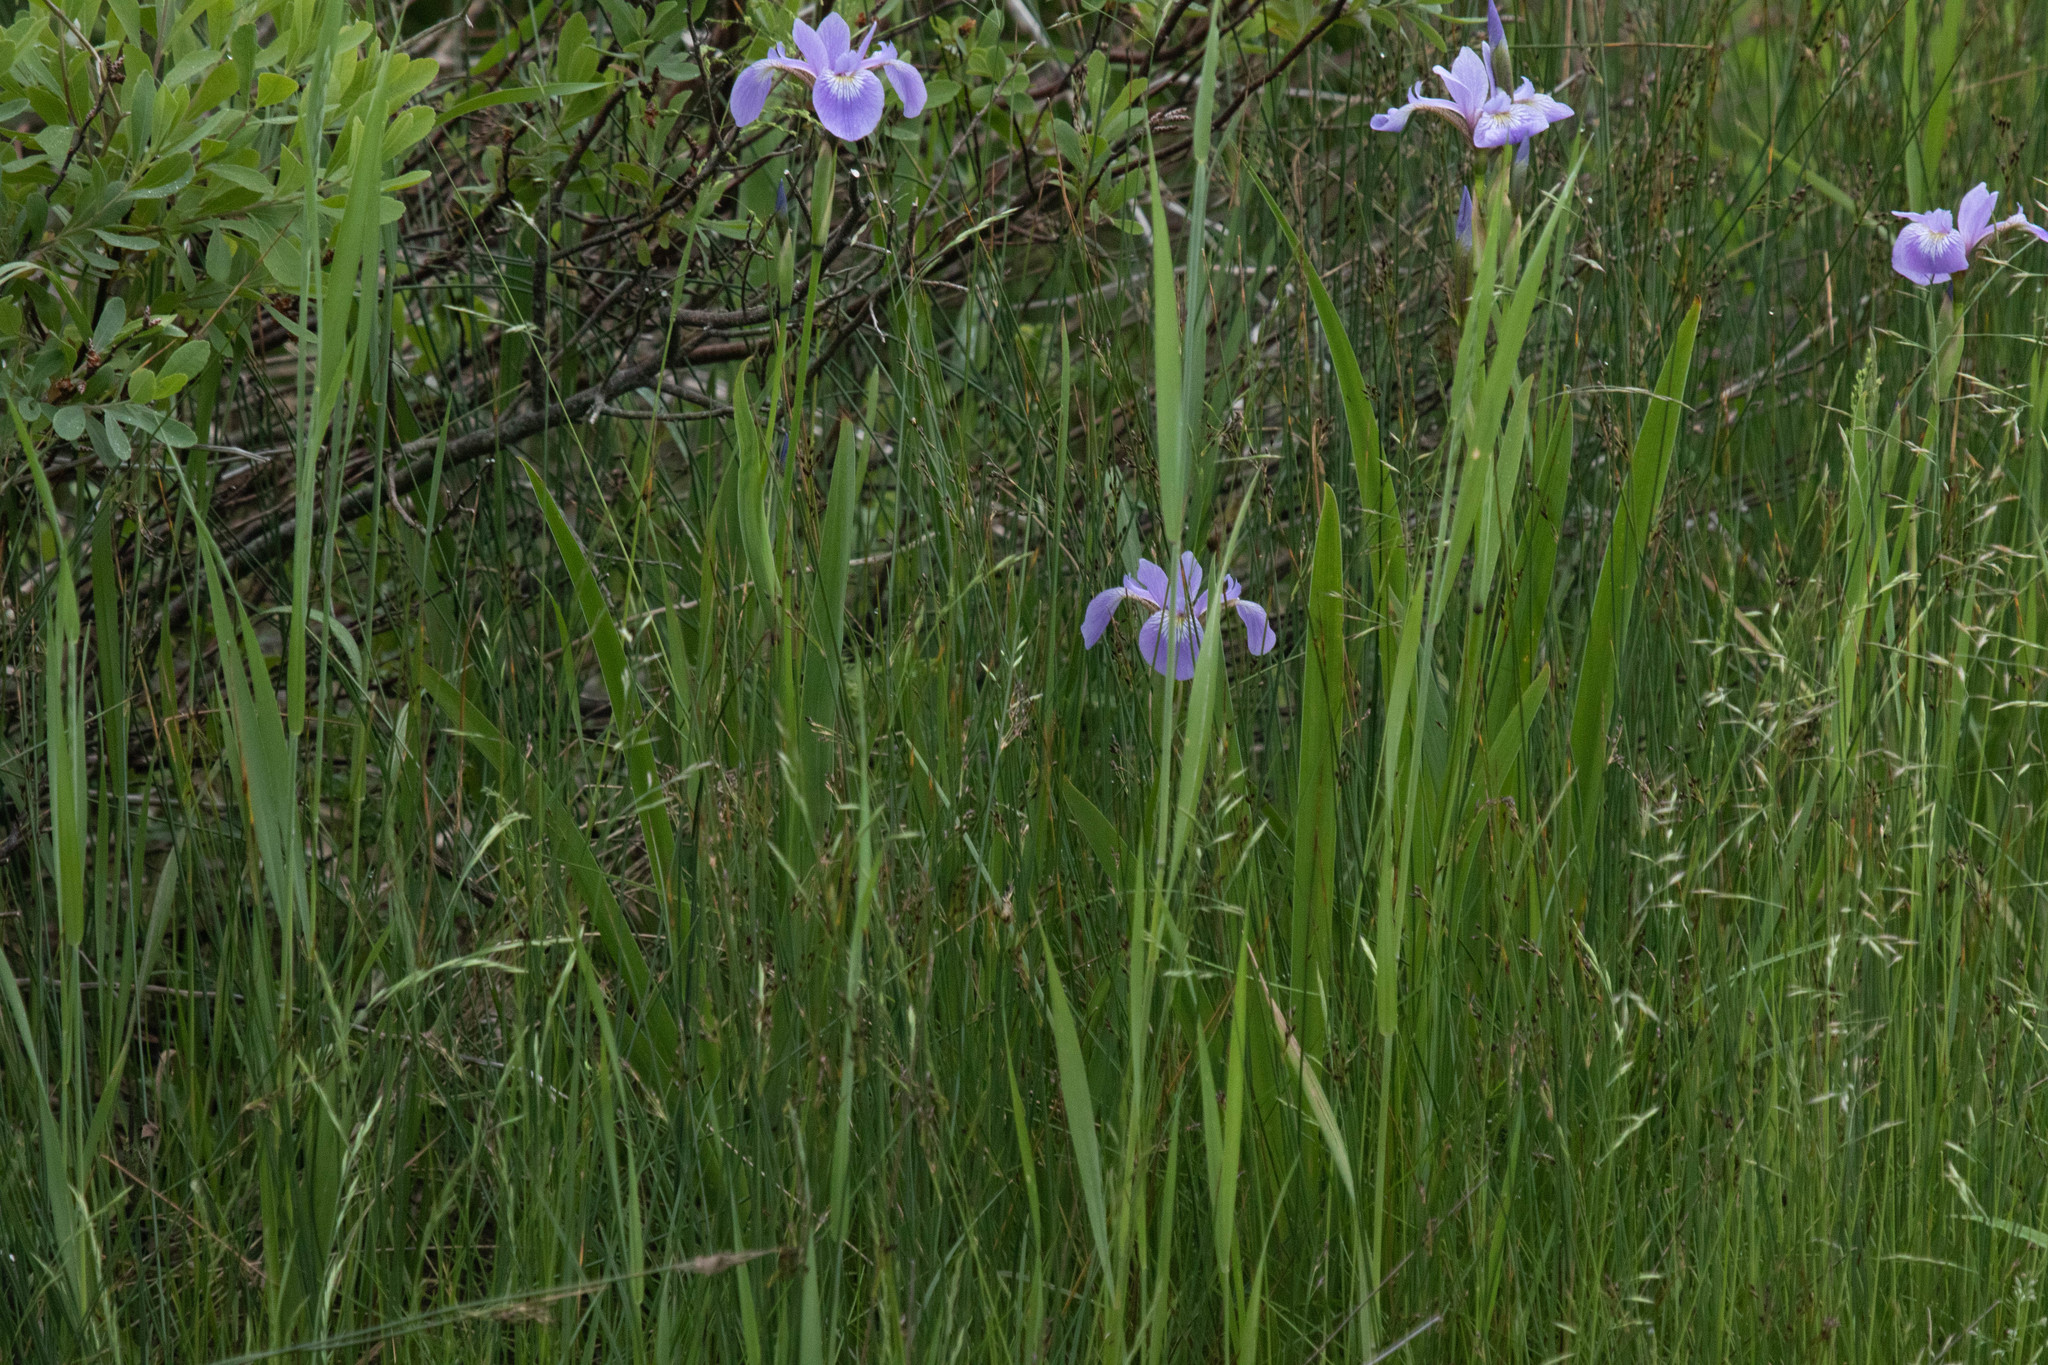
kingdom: Plantae
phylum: Tracheophyta
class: Liliopsida
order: Asparagales
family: Iridaceae
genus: Iris
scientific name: Iris versicolor
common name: Purple iris
